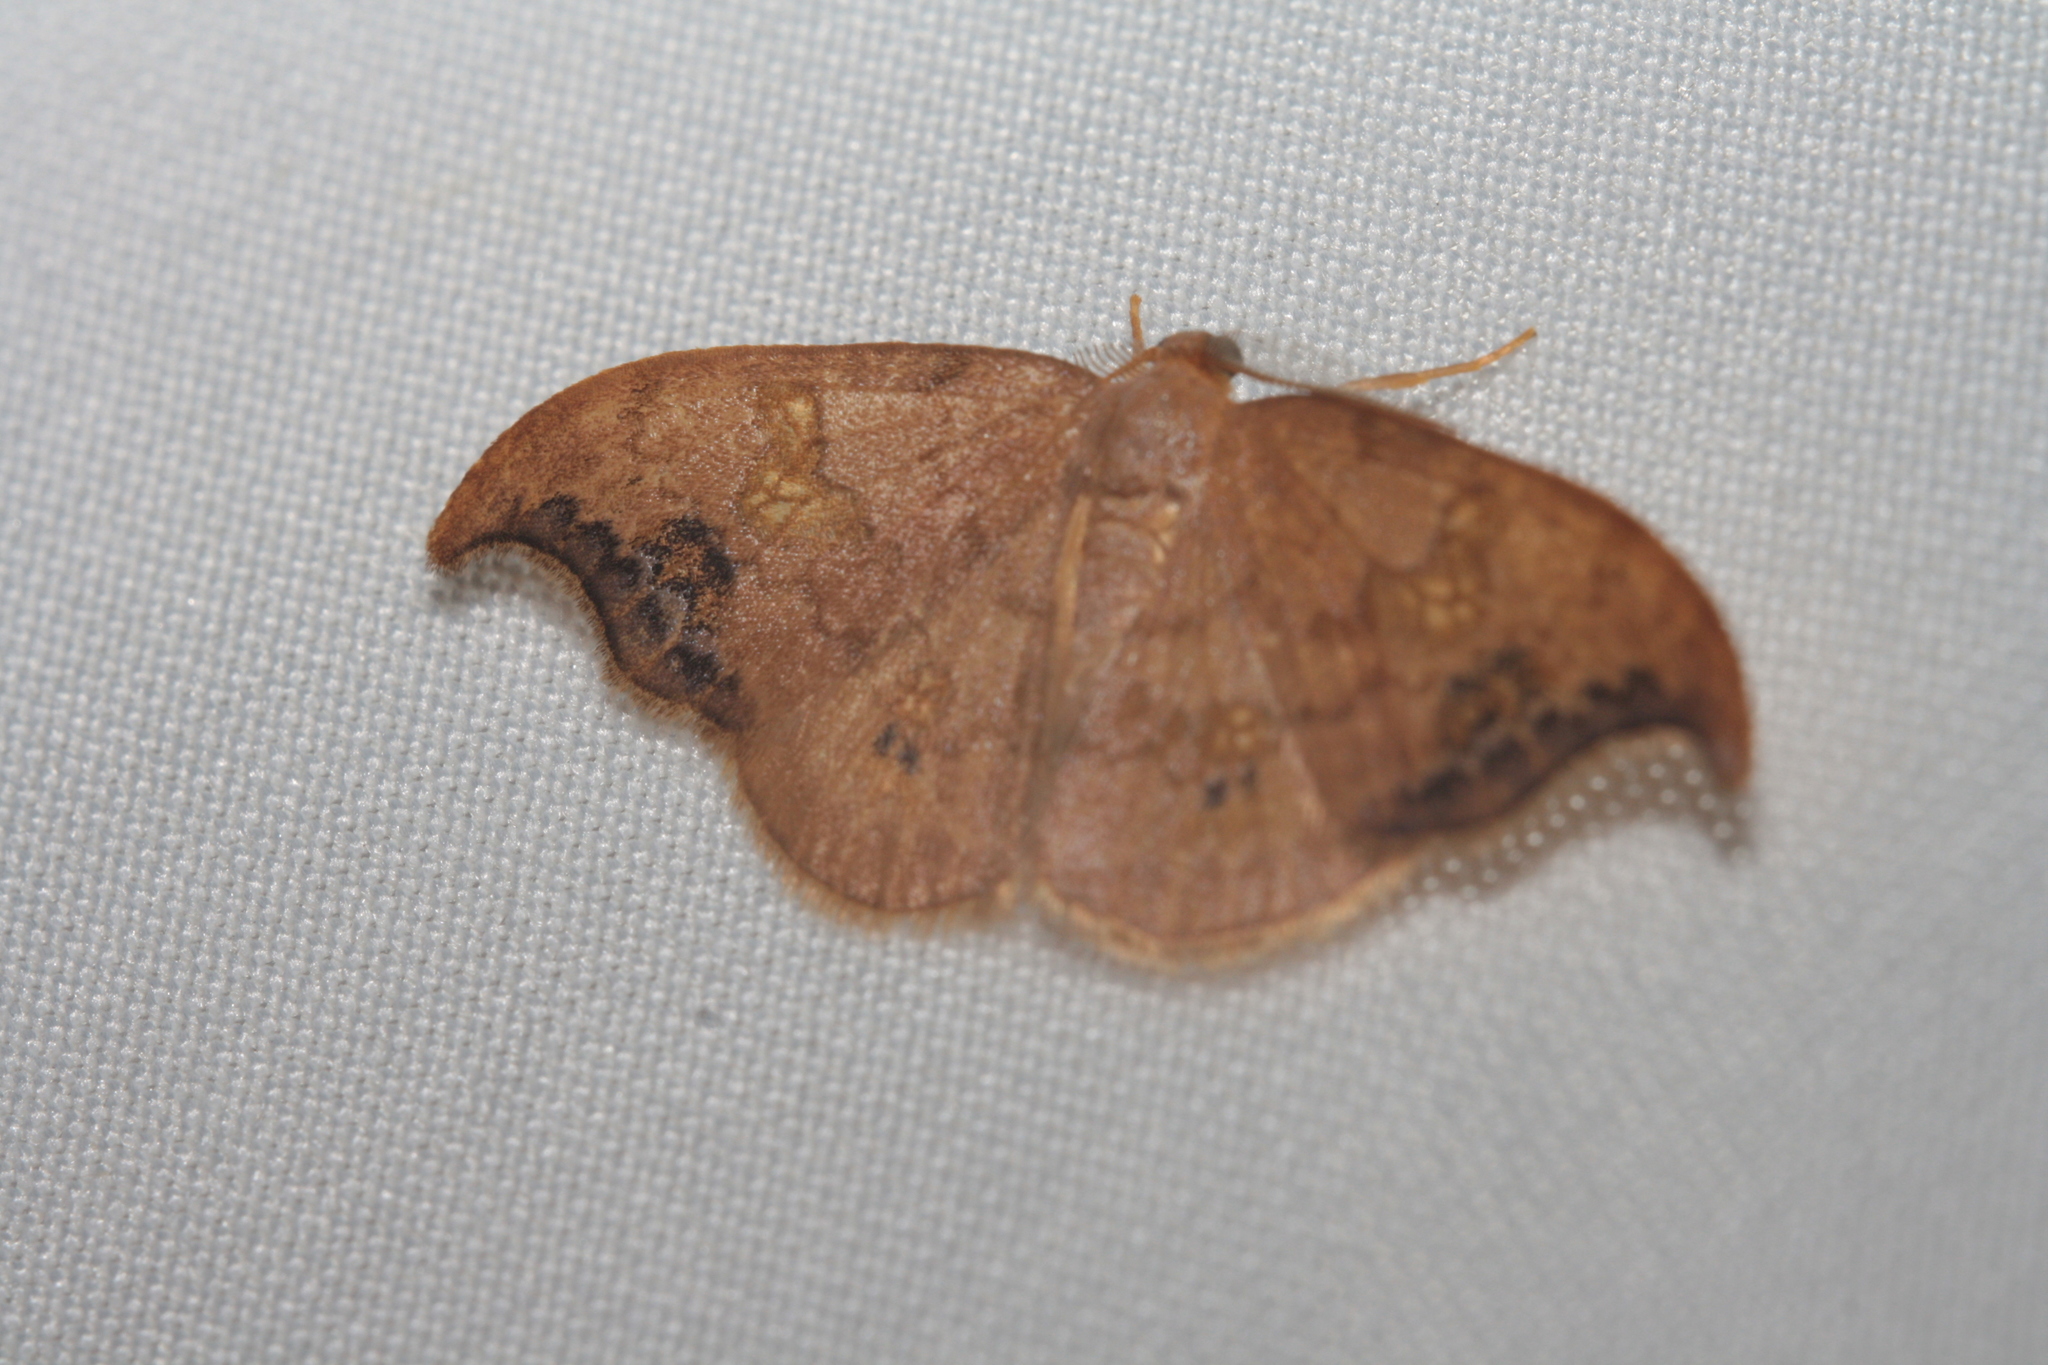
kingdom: Animalia
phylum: Arthropoda
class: Insecta
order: Lepidoptera
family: Drepanidae
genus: Sabra
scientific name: Sabra harpagula
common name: Scarce hook-tip
